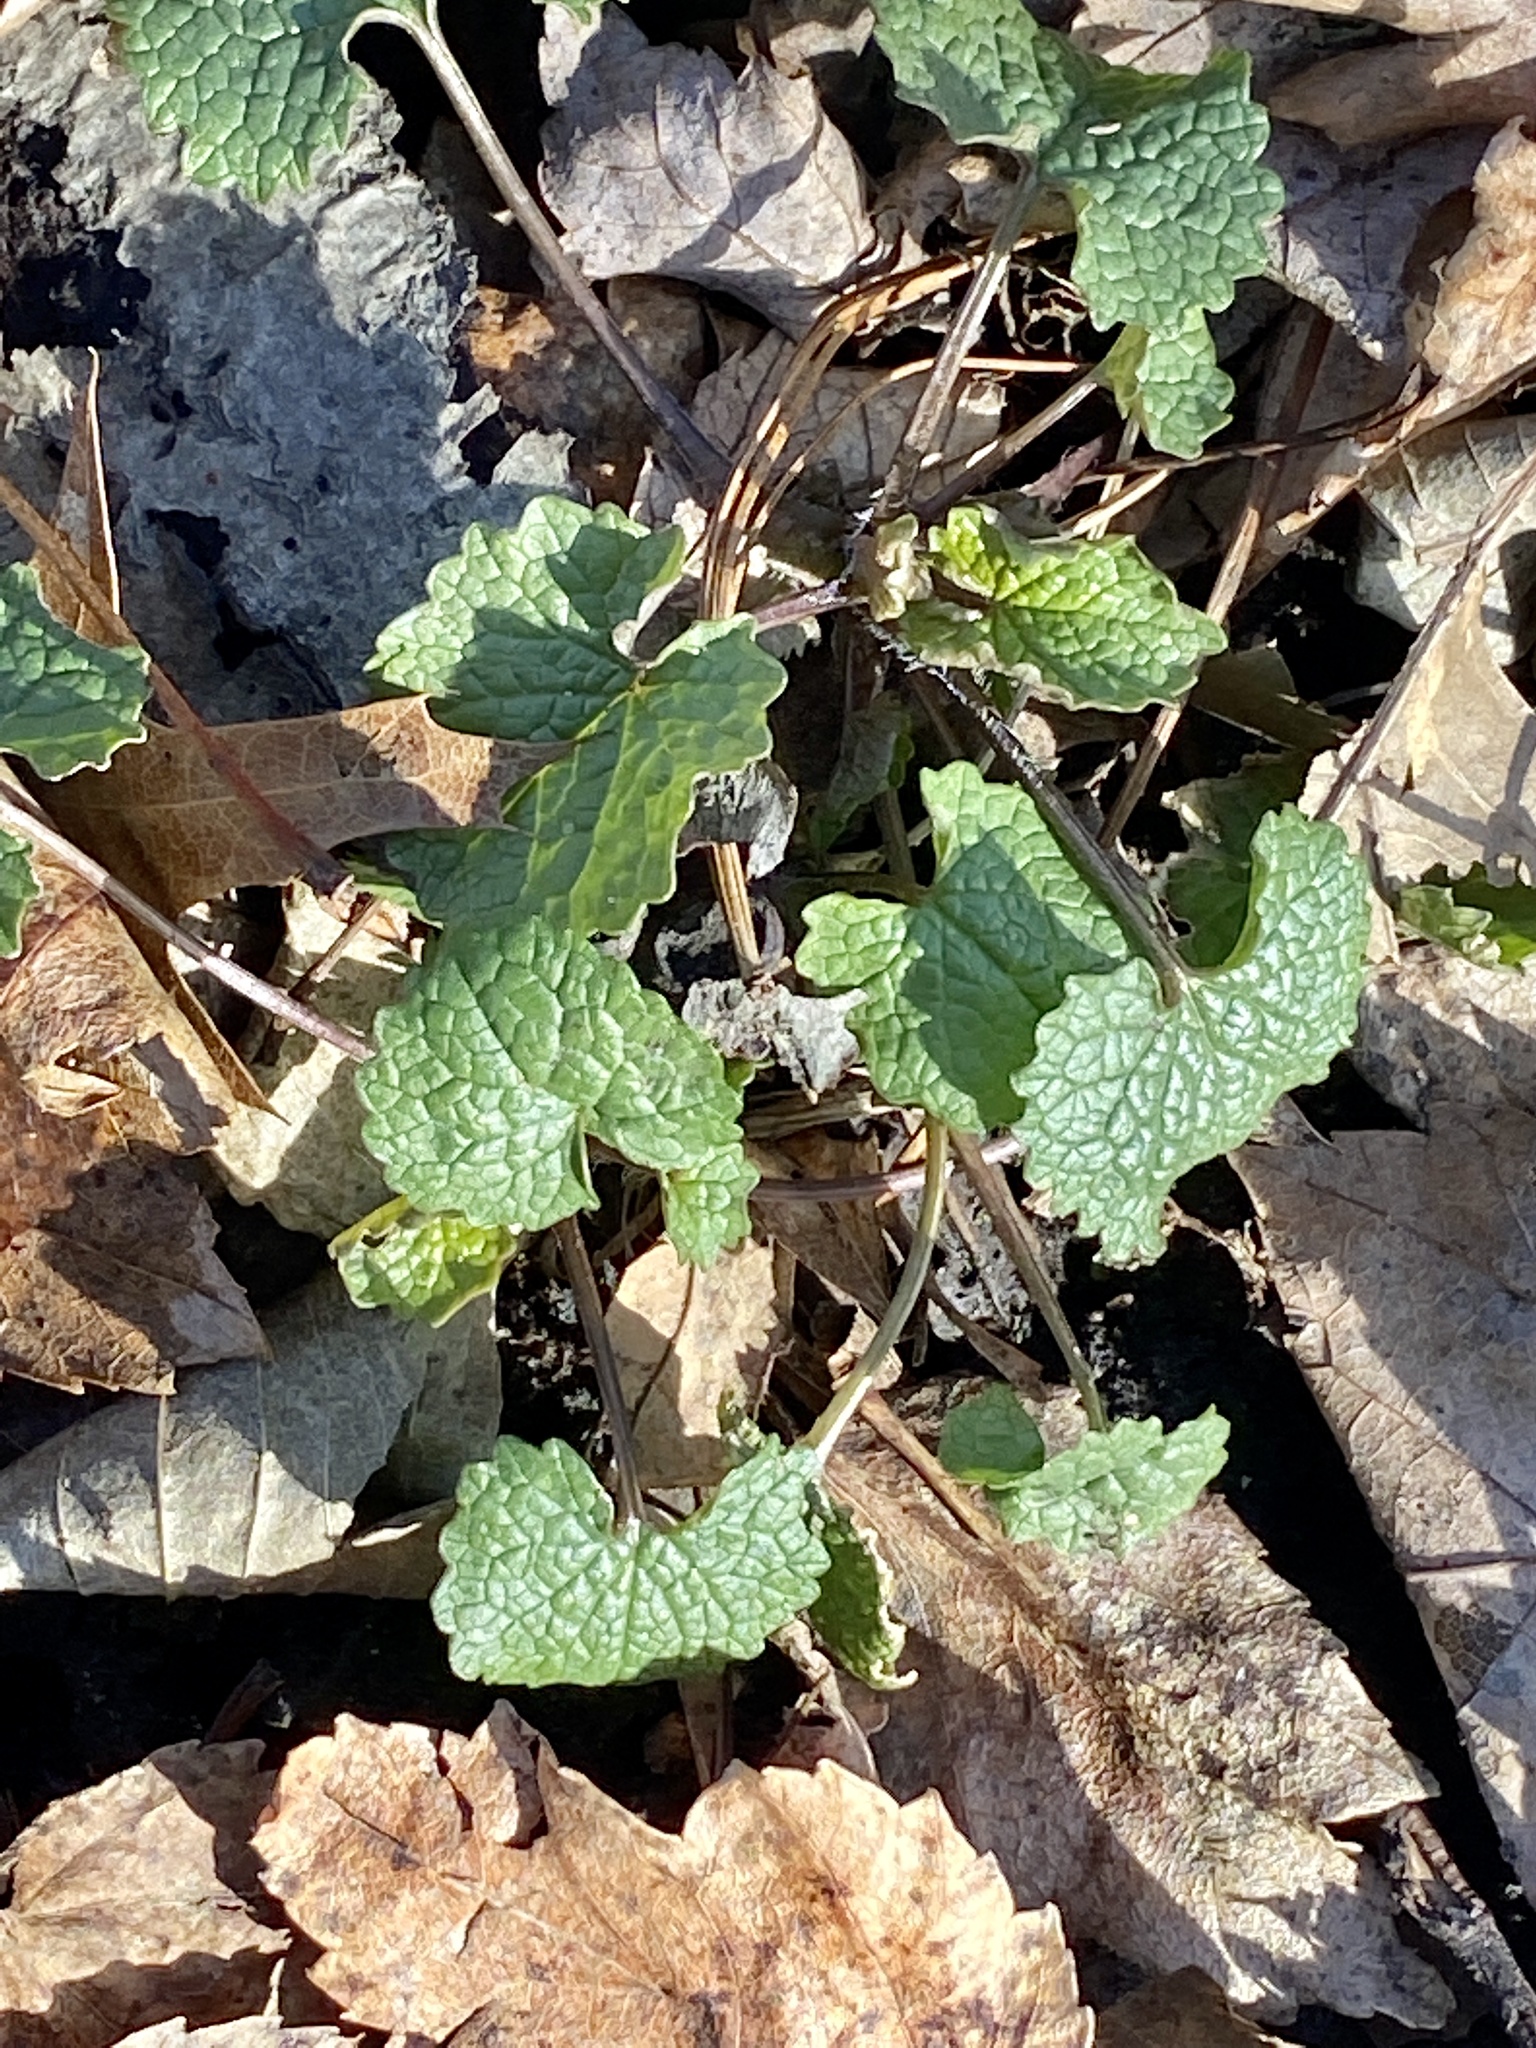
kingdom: Plantae
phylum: Tracheophyta
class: Magnoliopsida
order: Brassicales
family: Brassicaceae
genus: Alliaria
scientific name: Alliaria petiolata
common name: Garlic mustard
